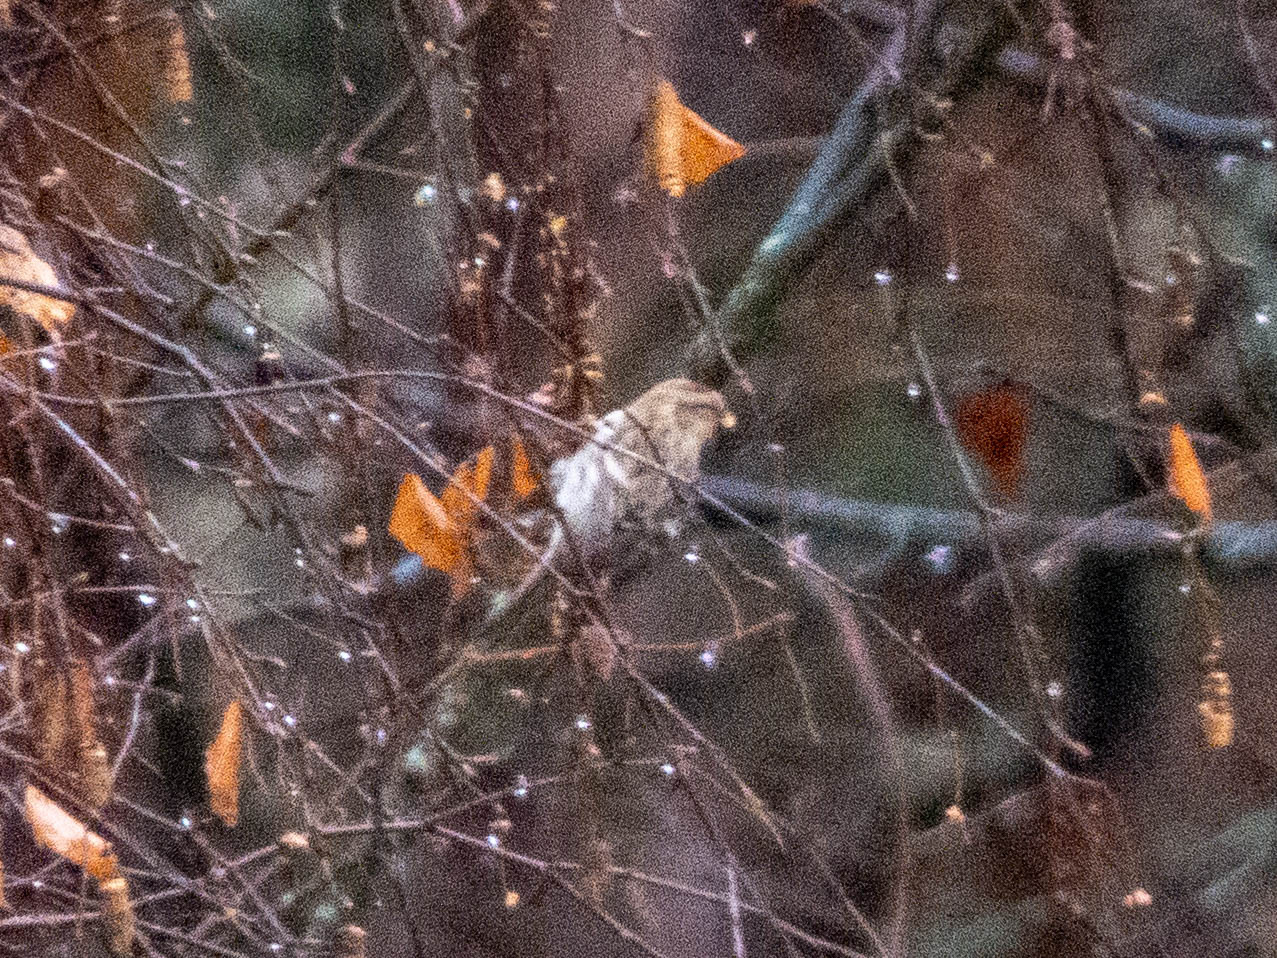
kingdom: Animalia
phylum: Chordata
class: Aves
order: Passeriformes
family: Fringillidae
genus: Acanthis
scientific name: Acanthis hornemanni
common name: Arctic redpoll
